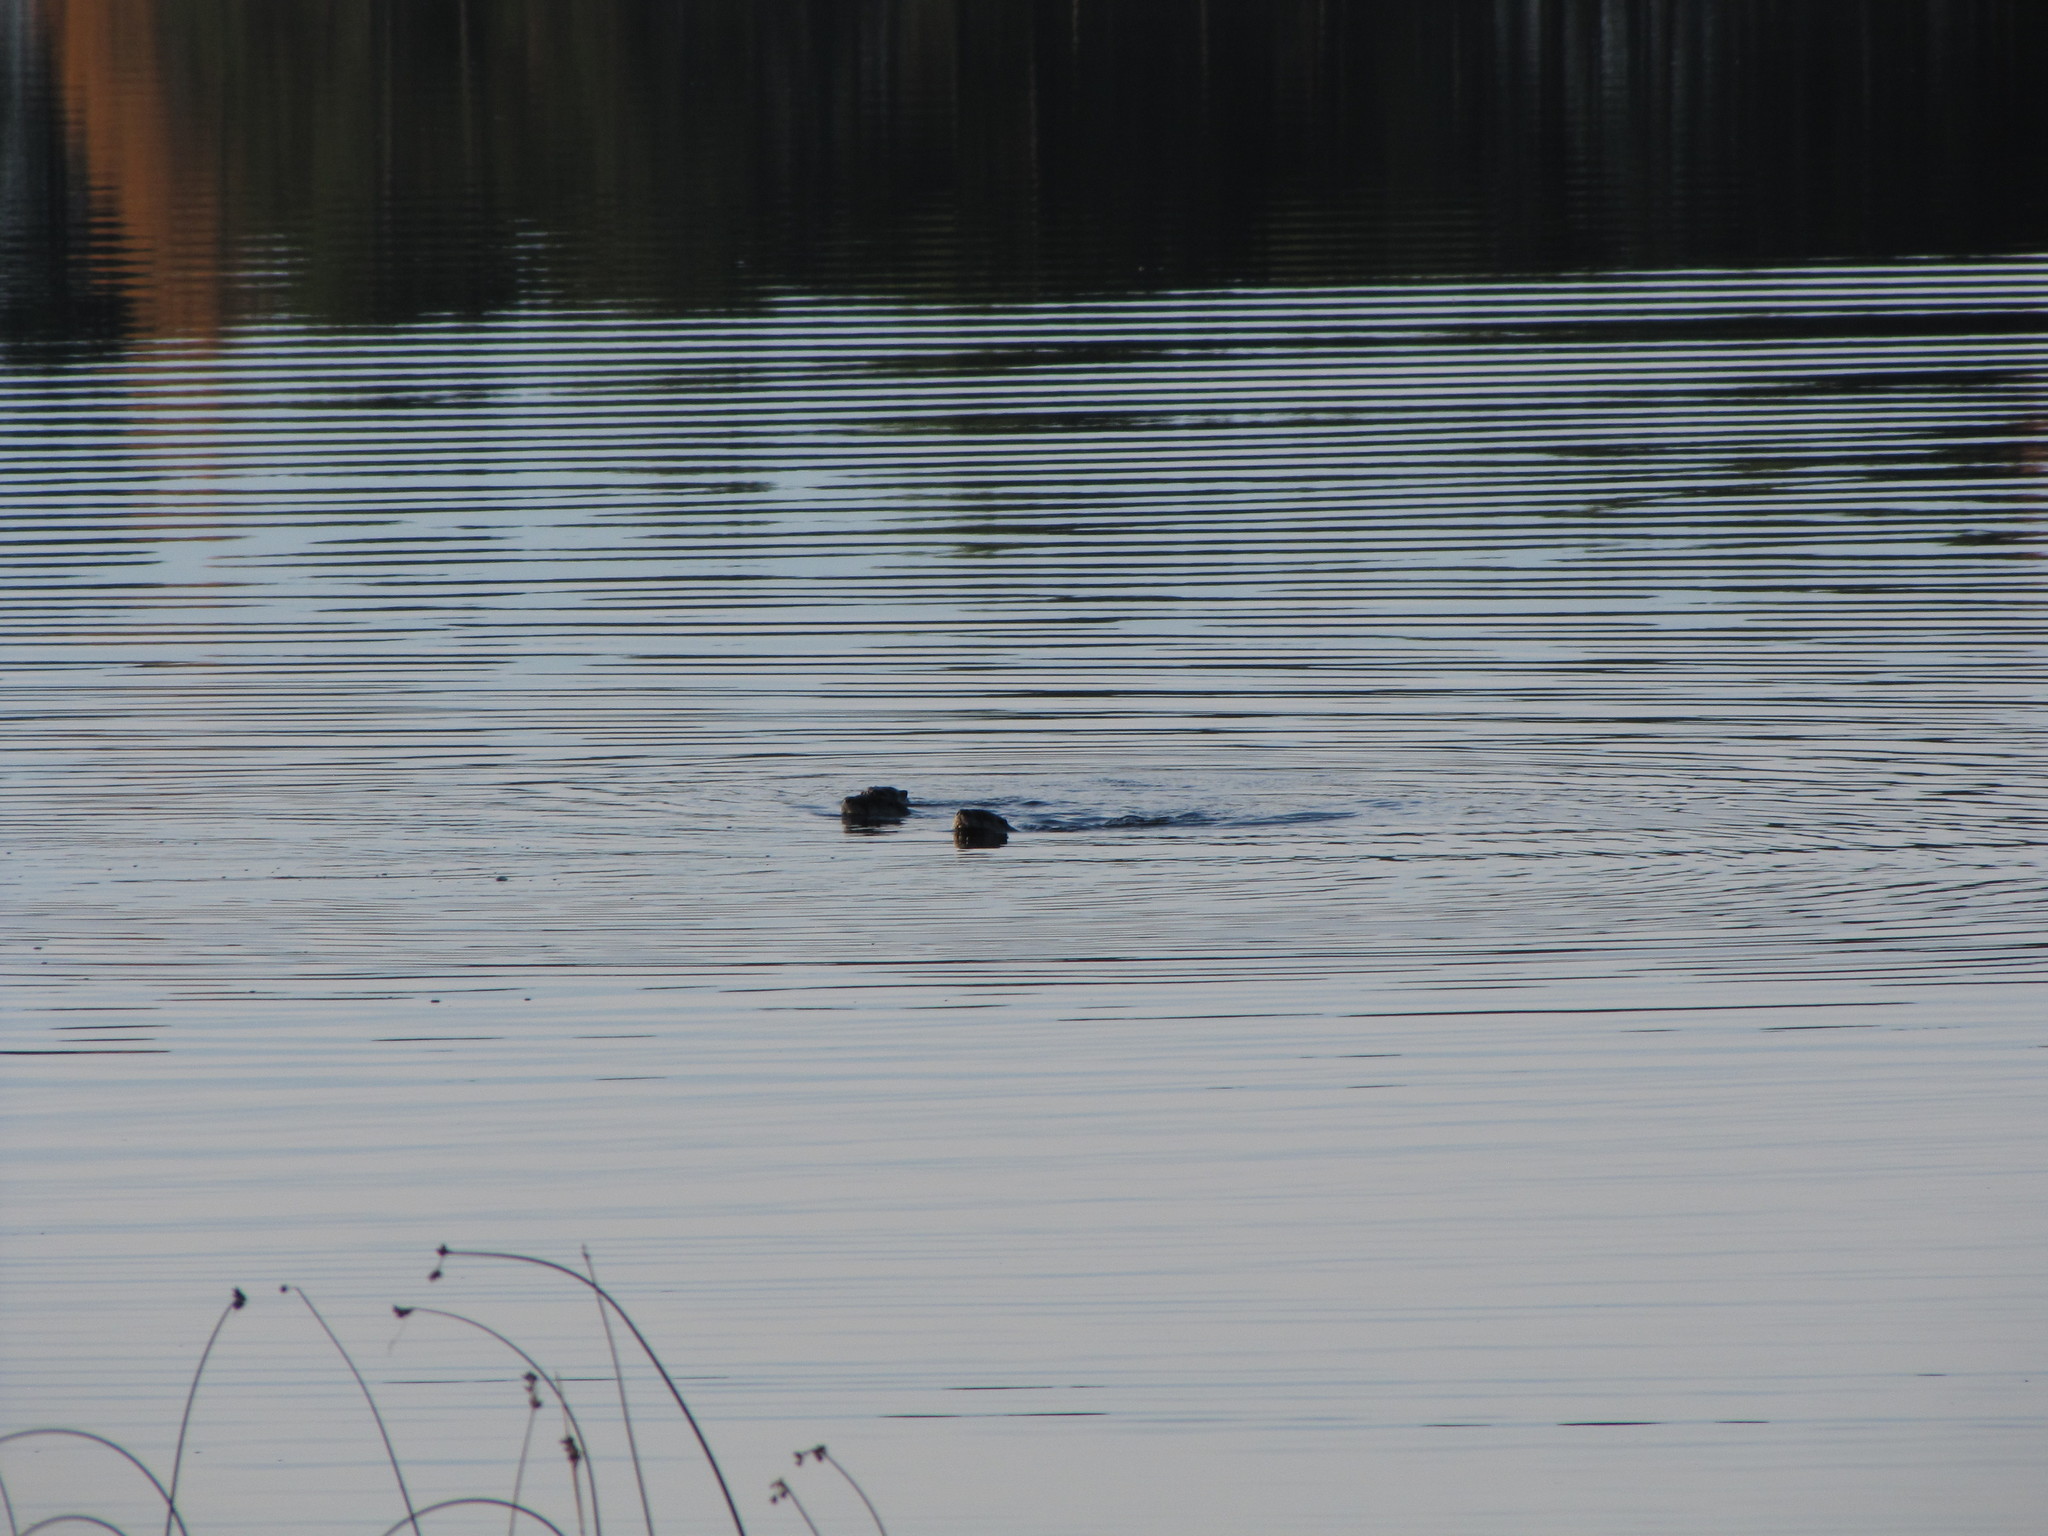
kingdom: Animalia
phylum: Chordata
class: Mammalia
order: Carnivora
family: Mustelidae
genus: Lontra
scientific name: Lontra canadensis
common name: North american river otter
